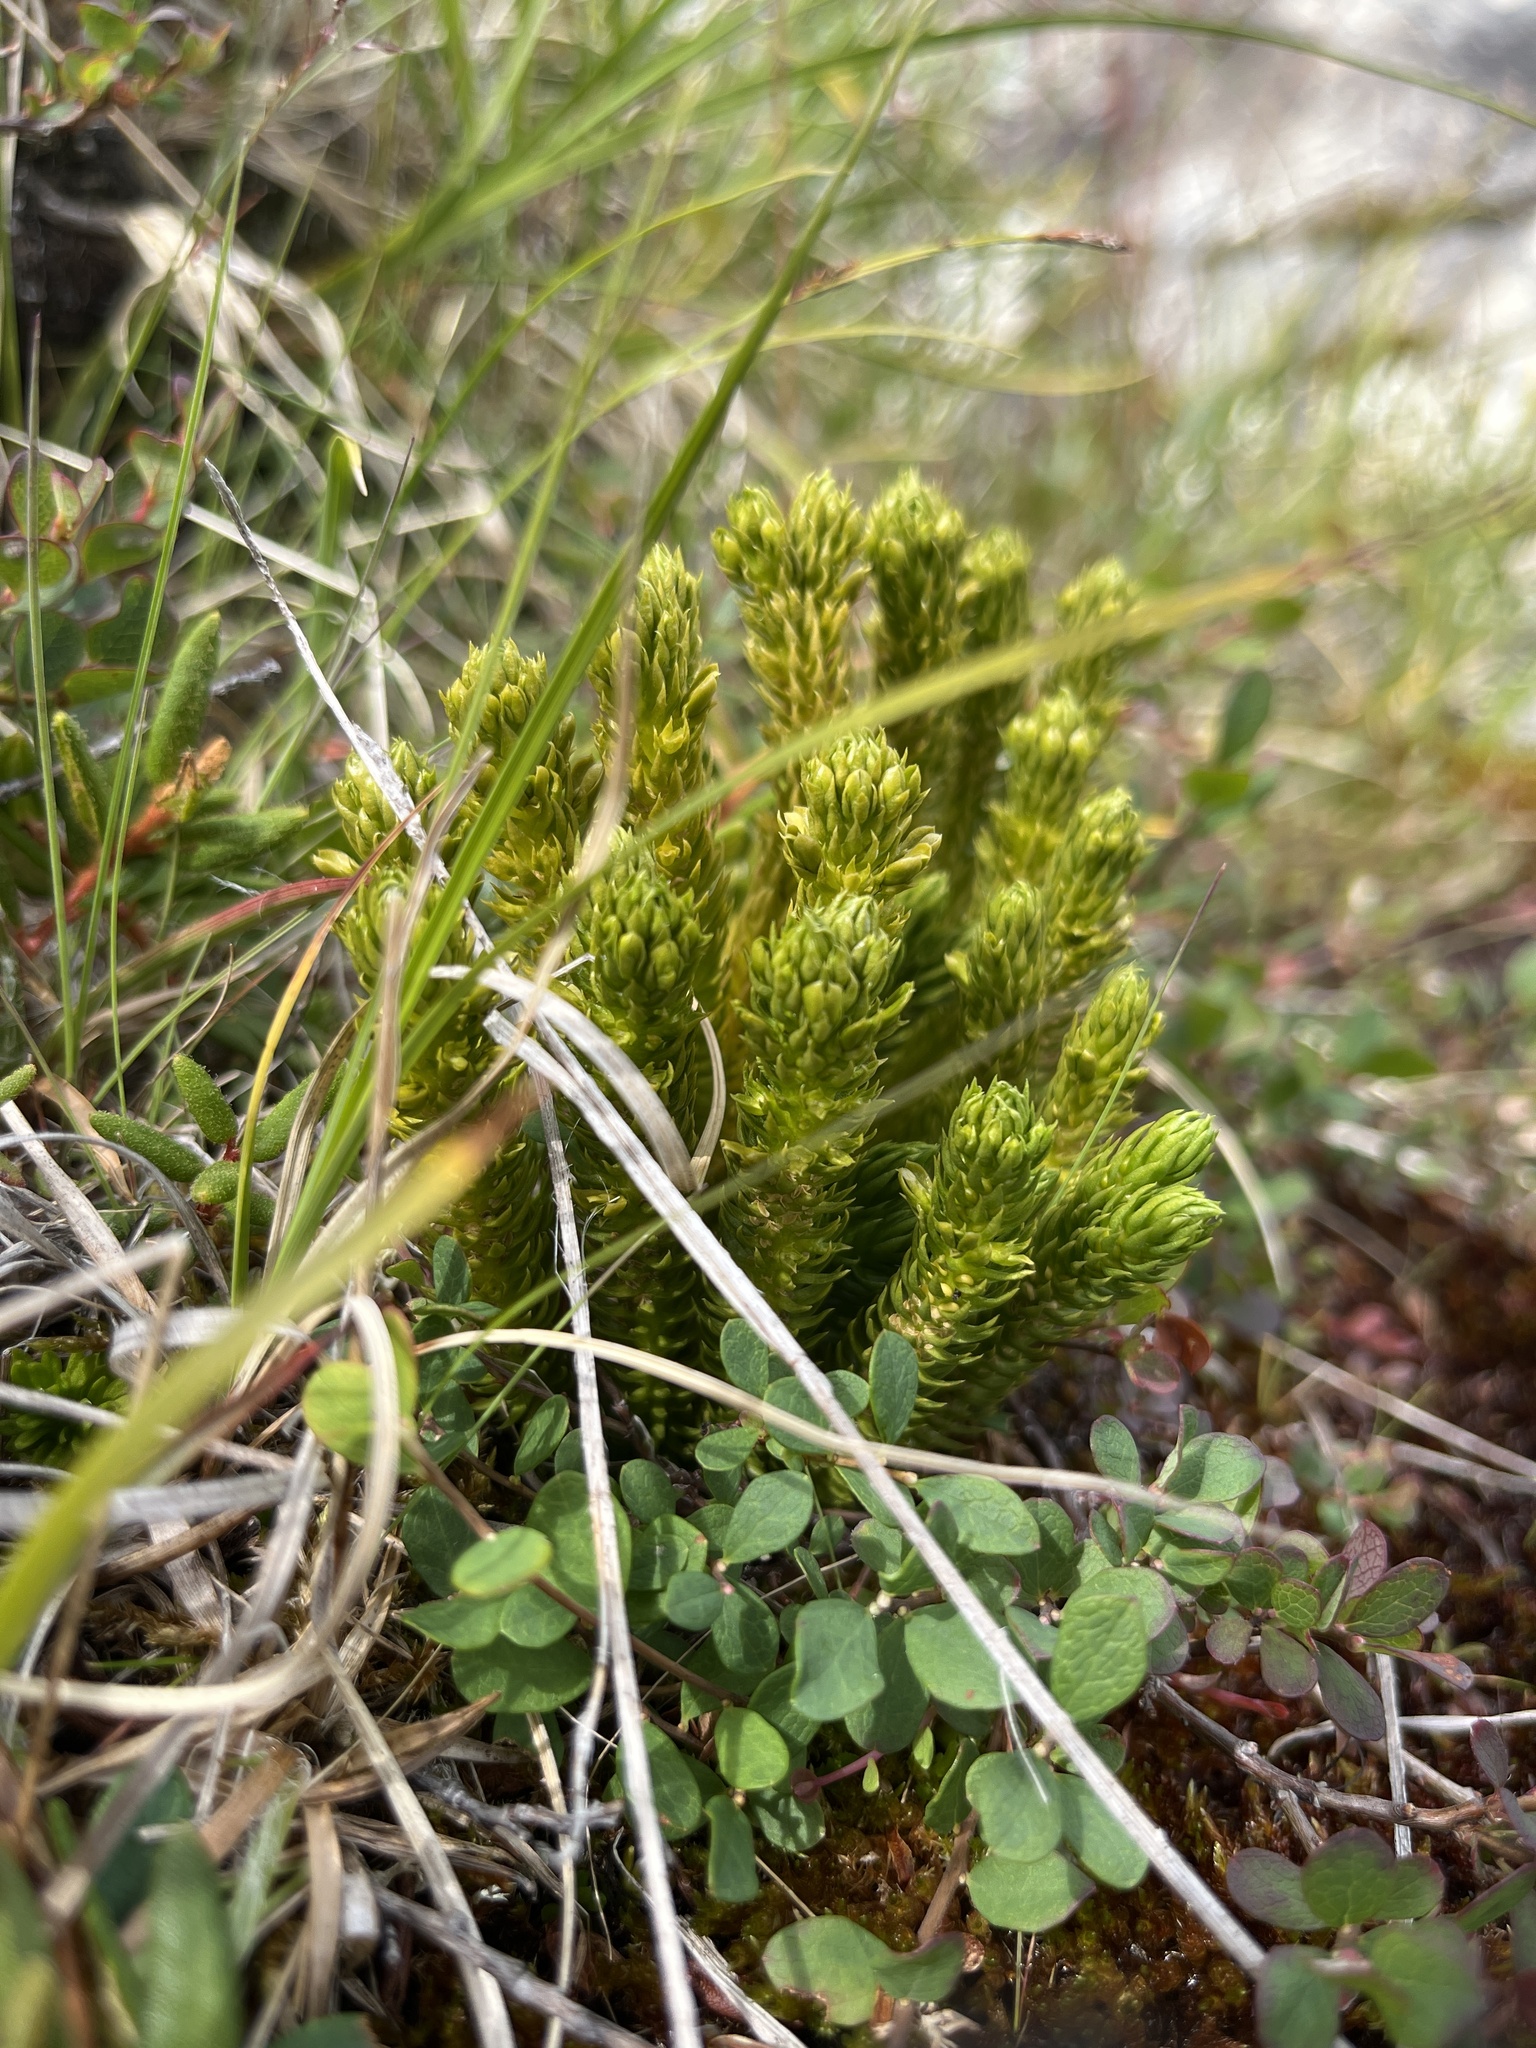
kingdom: Plantae
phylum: Tracheophyta
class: Lycopodiopsida
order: Lycopodiales
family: Lycopodiaceae
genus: Huperzia
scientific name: Huperzia selago
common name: Northern firmoss
